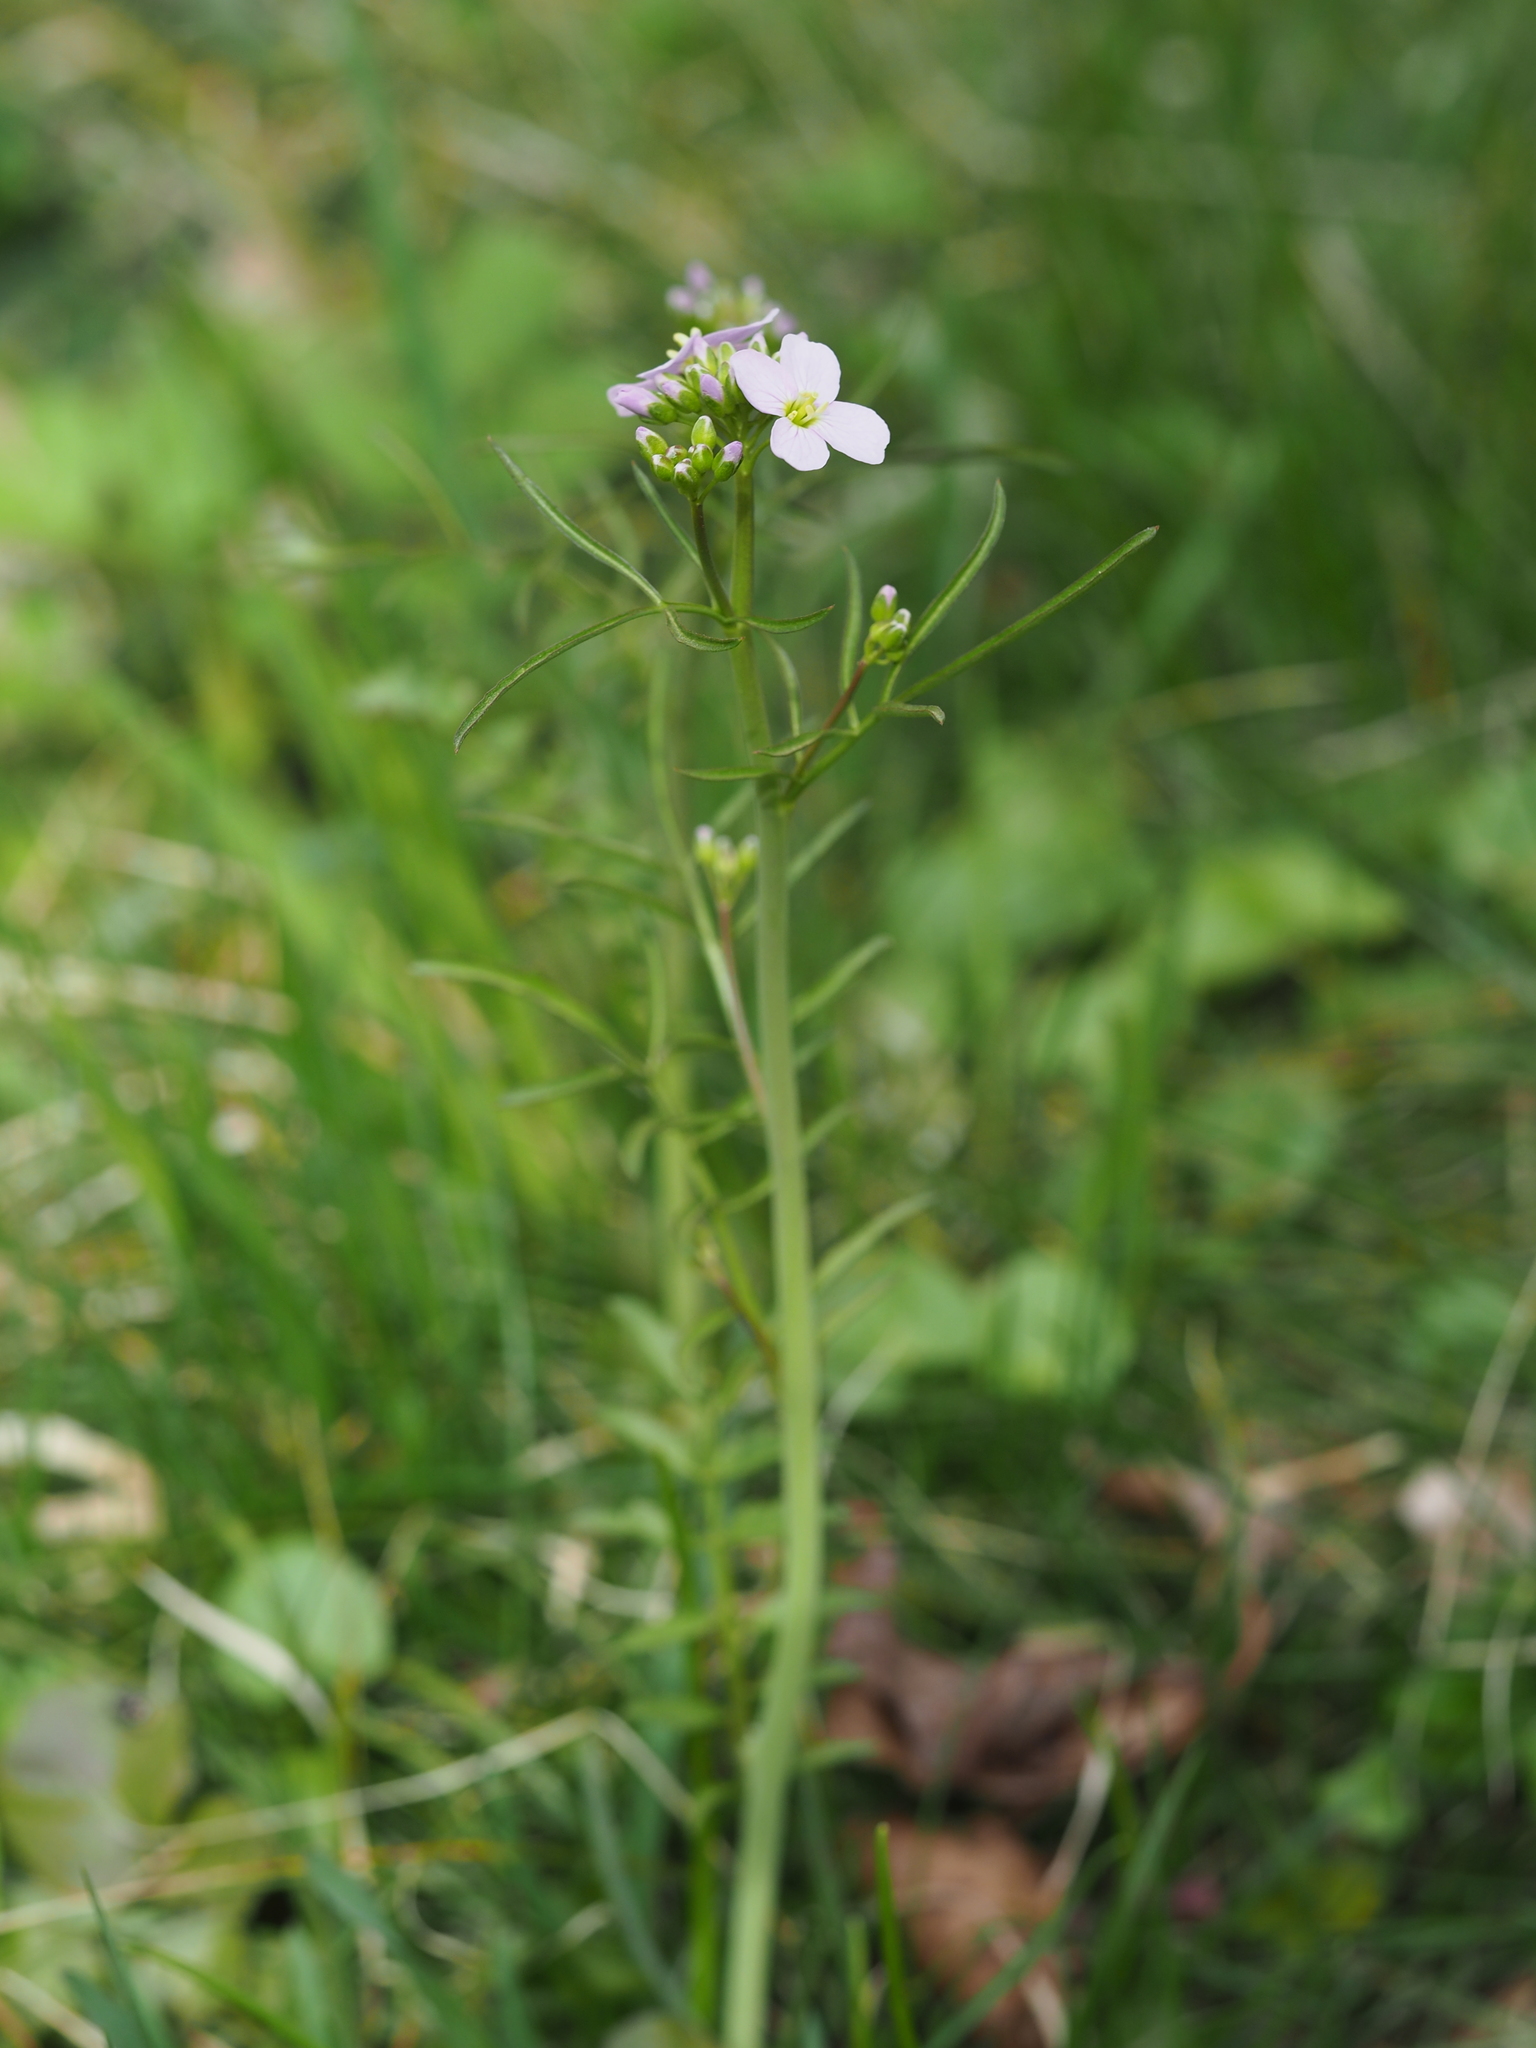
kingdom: Plantae
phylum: Tracheophyta
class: Magnoliopsida
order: Brassicales
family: Brassicaceae
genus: Cardamine
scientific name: Cardamine pratensis
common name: Cuckoo flower
